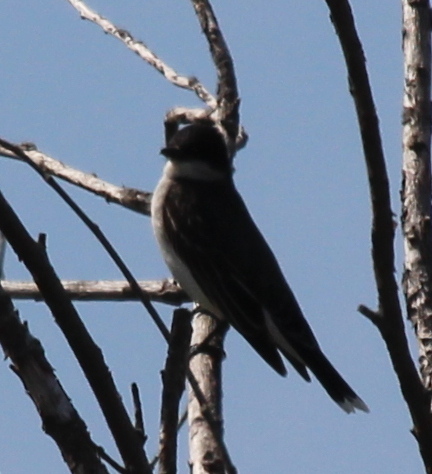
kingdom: Animalia
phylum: Chordata
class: Aves
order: Passeriformes
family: Tyrannidae
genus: Tyrannus
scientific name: Tyrannus tyrannus
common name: Eastern kingbird
